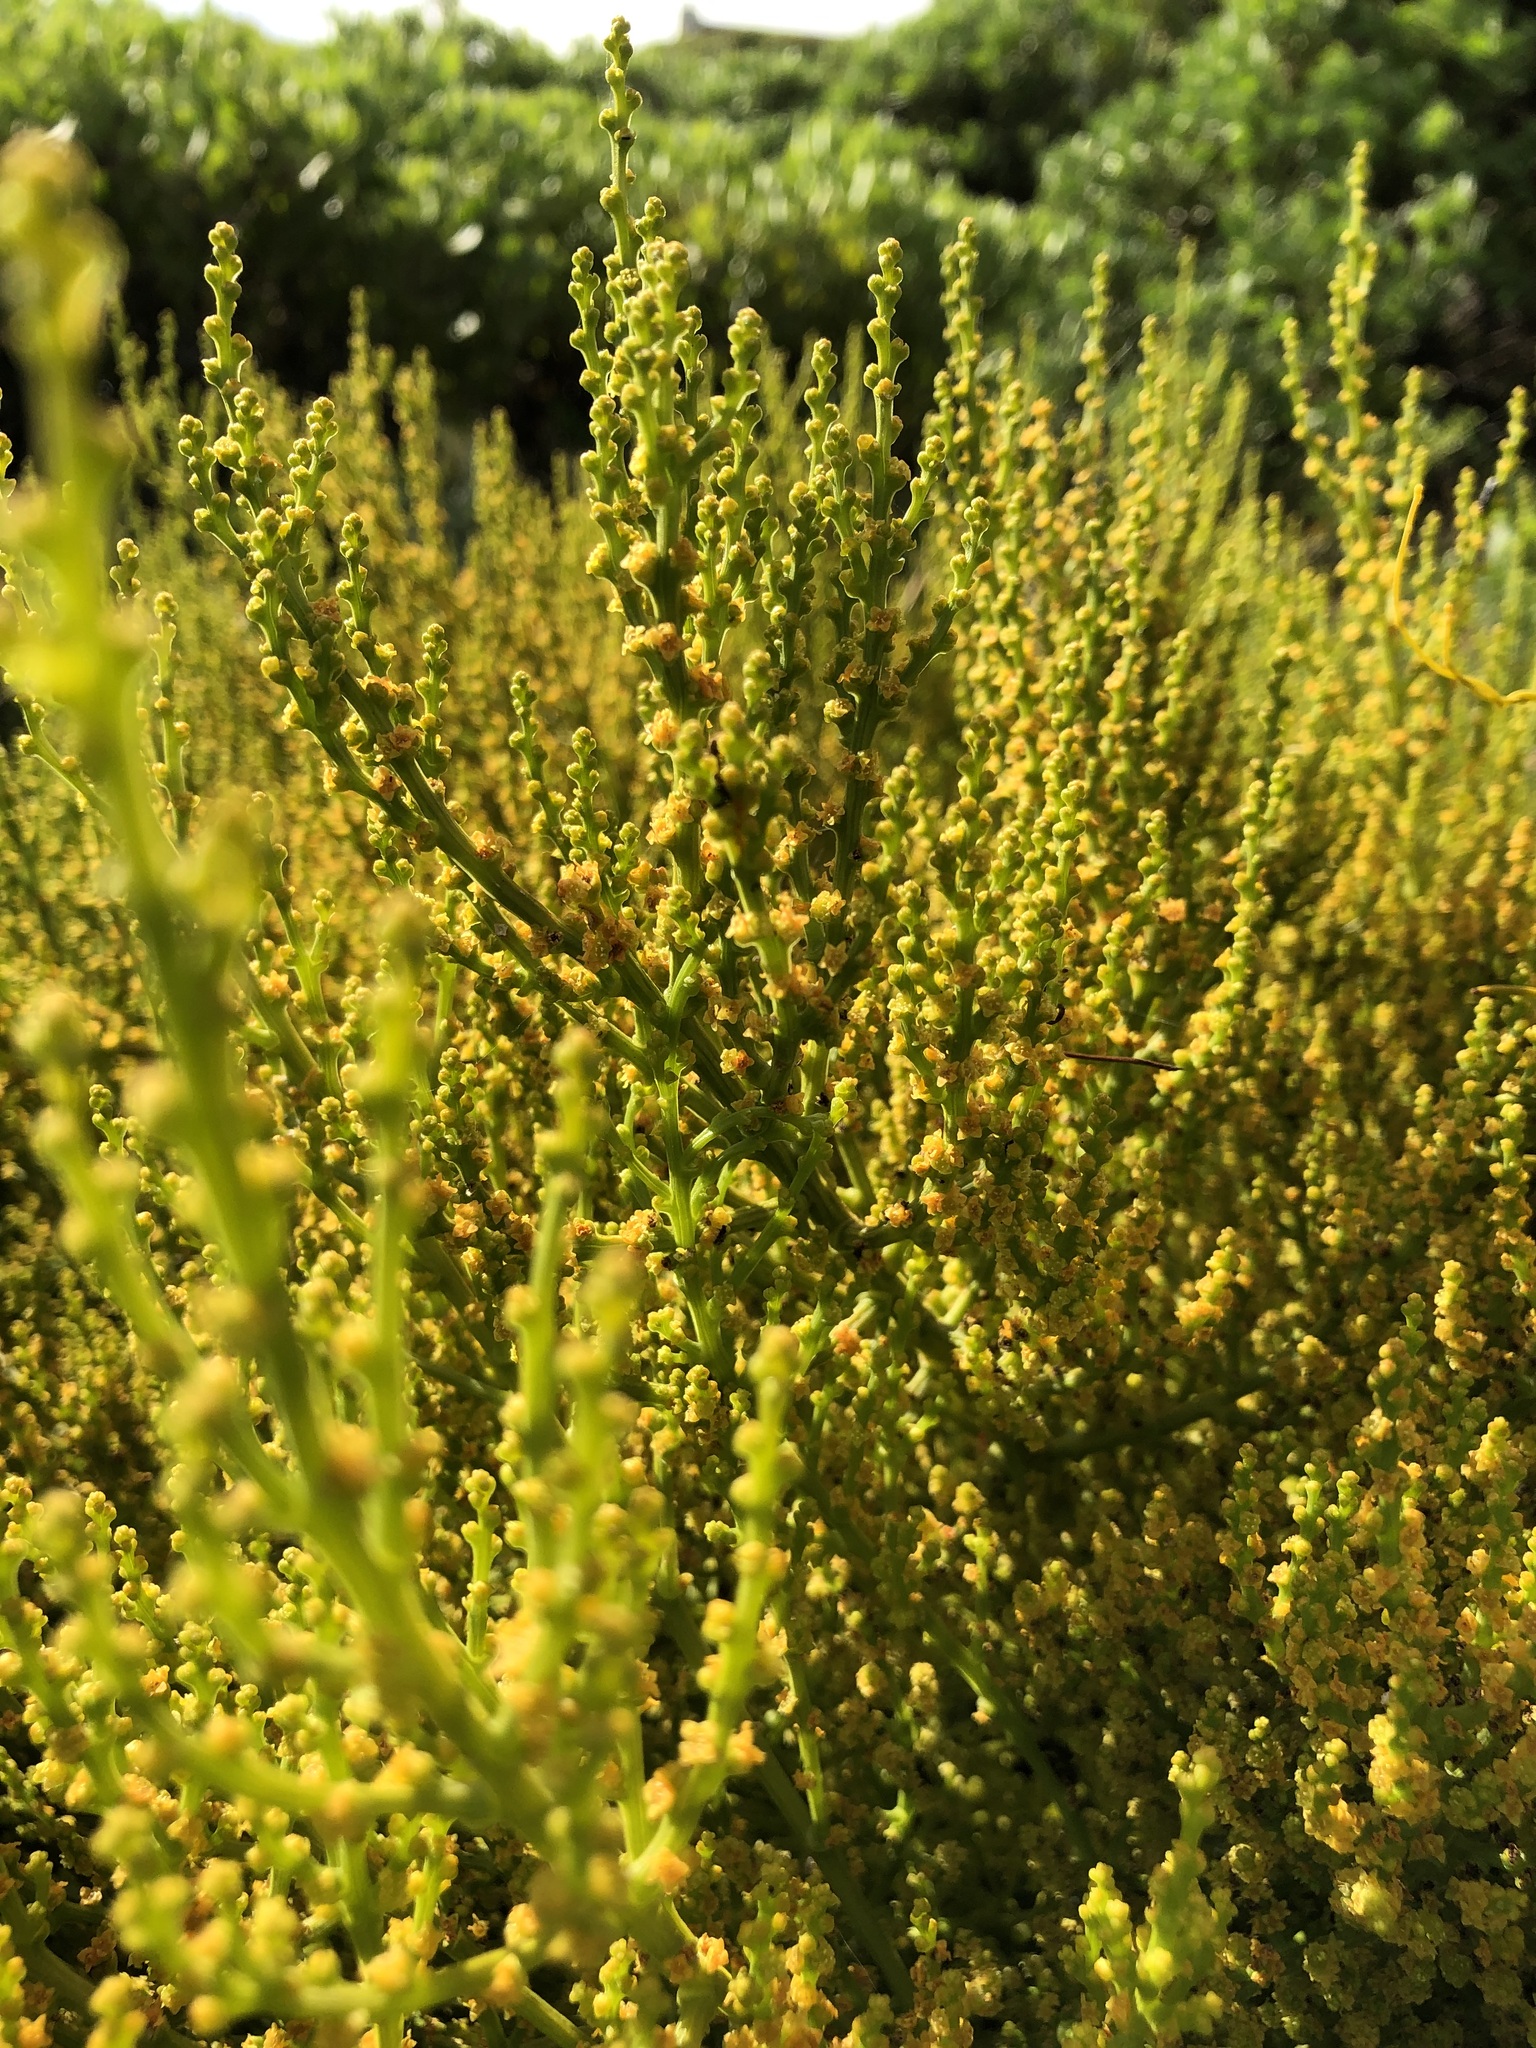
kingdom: Plantae
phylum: Tracheophyta
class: Magnoliopsida
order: Santalales
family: Thesiaceae
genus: Thesium
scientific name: Thesium fragile
